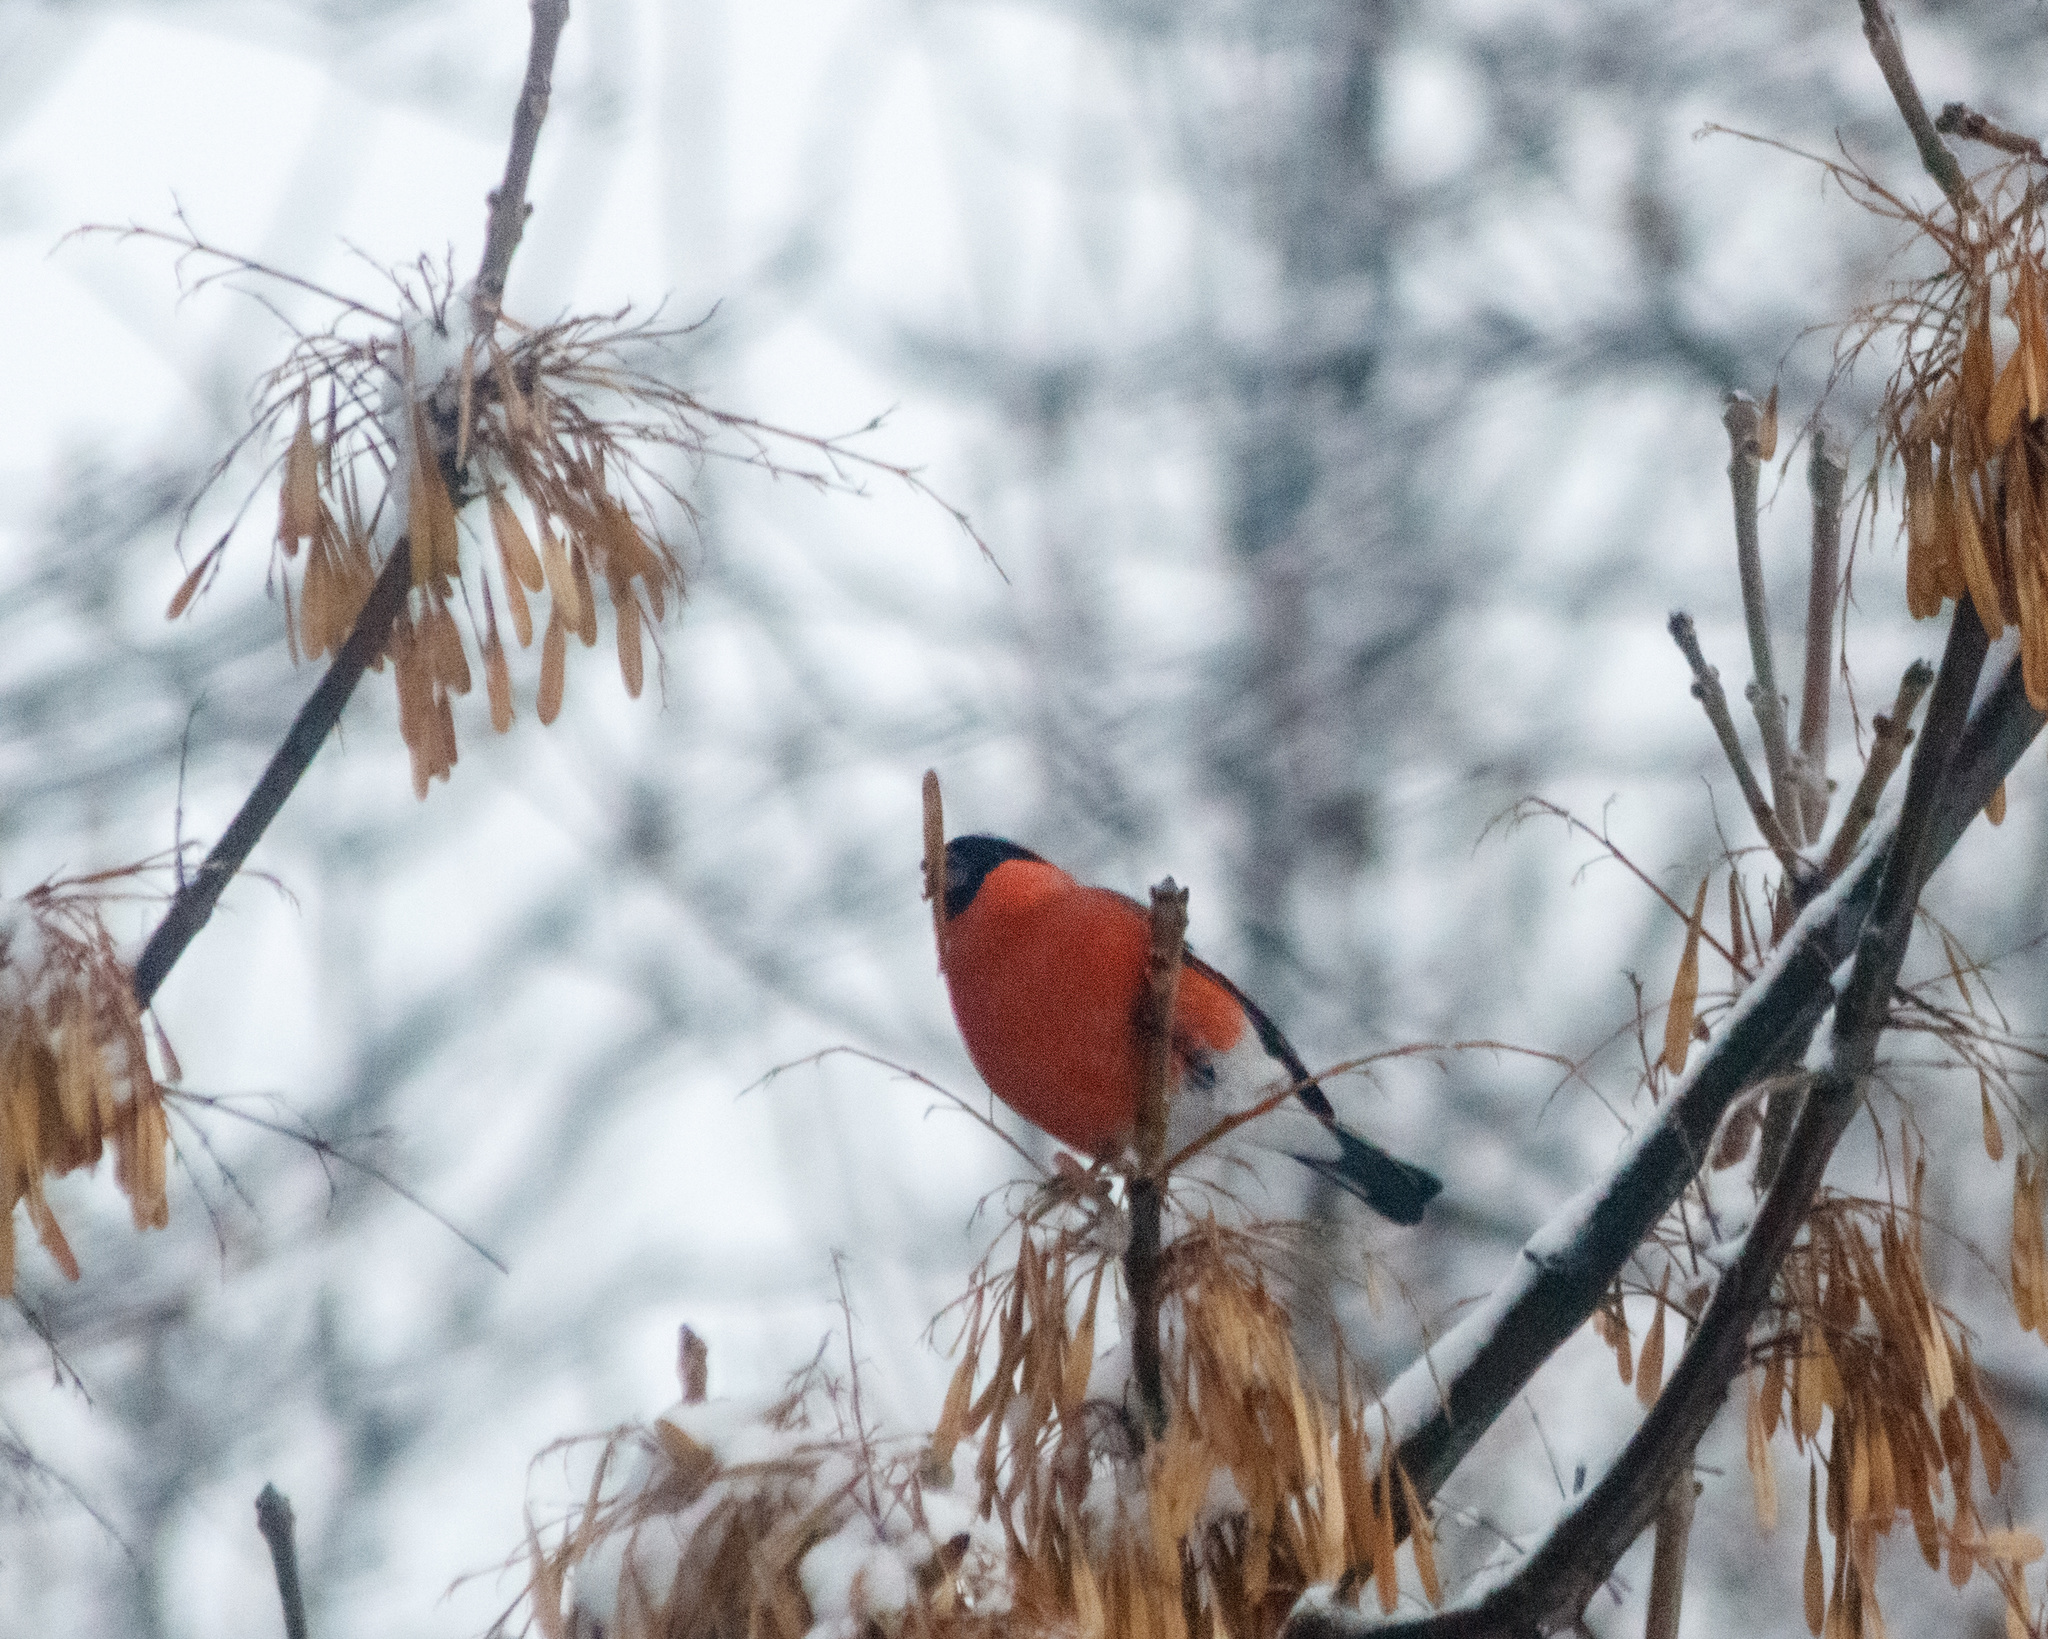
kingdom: Animalia
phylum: Chordata
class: Aves
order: Passeriformes
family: Fringillidae
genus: Pyrrhula
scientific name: Pyrrhula pyrrhula
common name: Eurasian bullfinch
